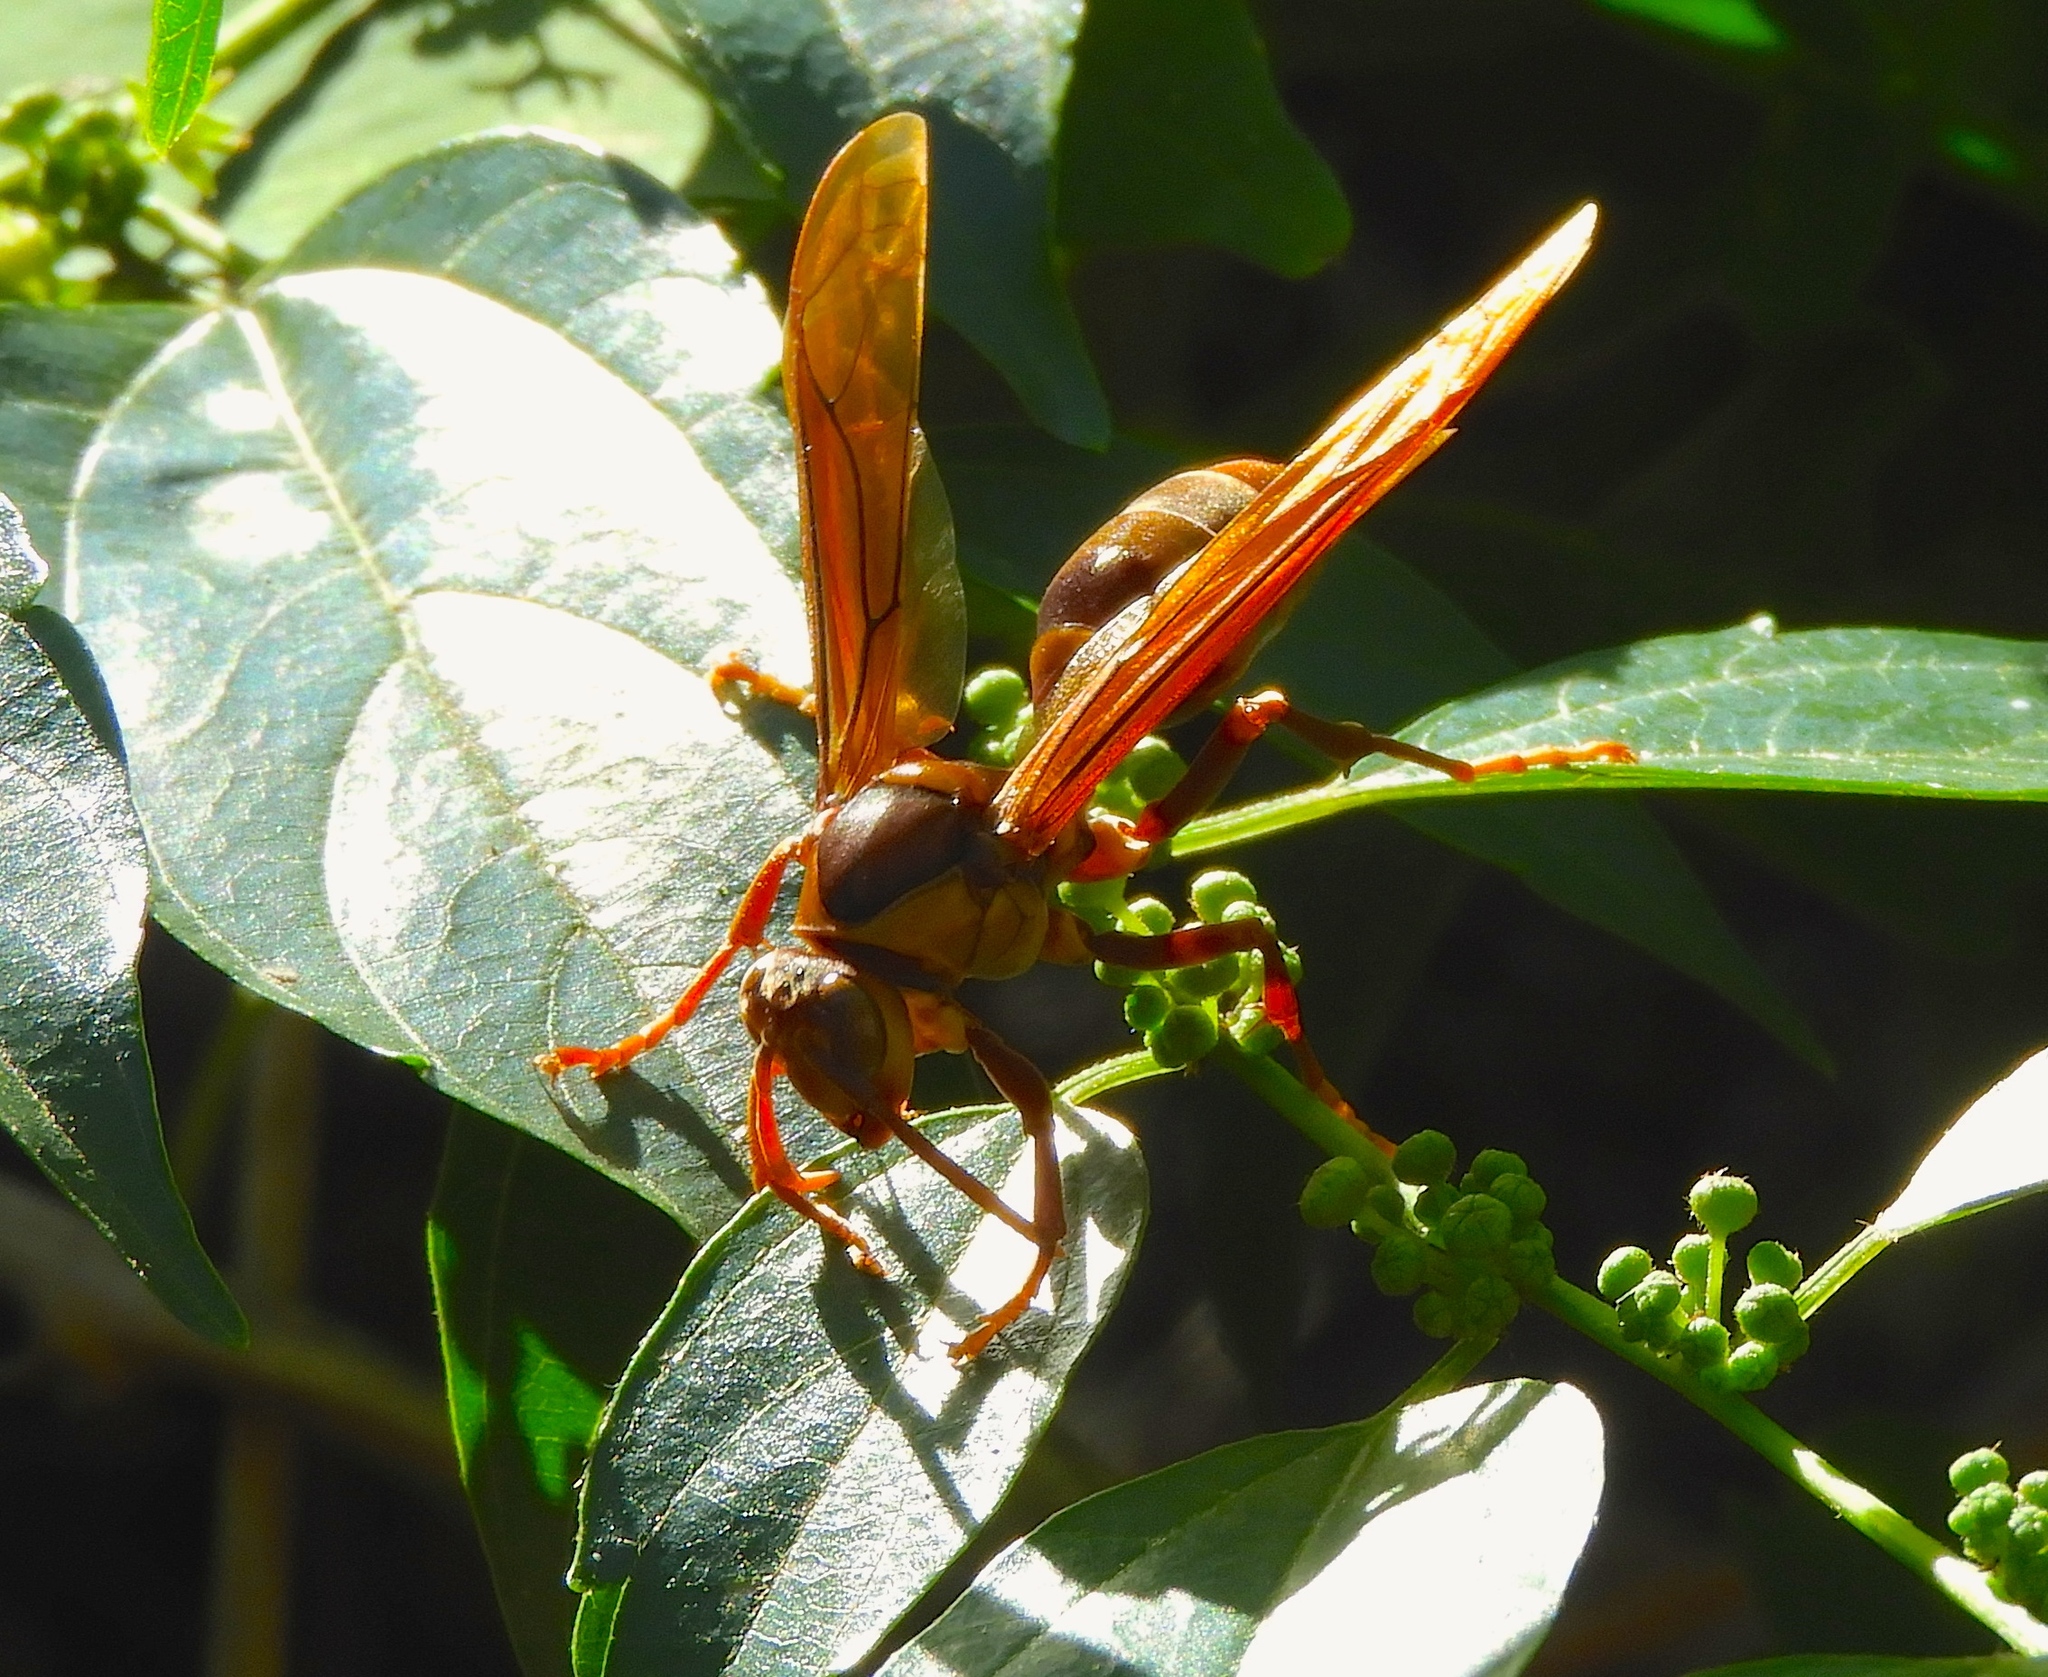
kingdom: Animalia
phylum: Arthropoda
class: Insecta
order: Hymenoptera
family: Eumenidae
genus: Polistes
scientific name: Polistes carnifex
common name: Paper wasp
